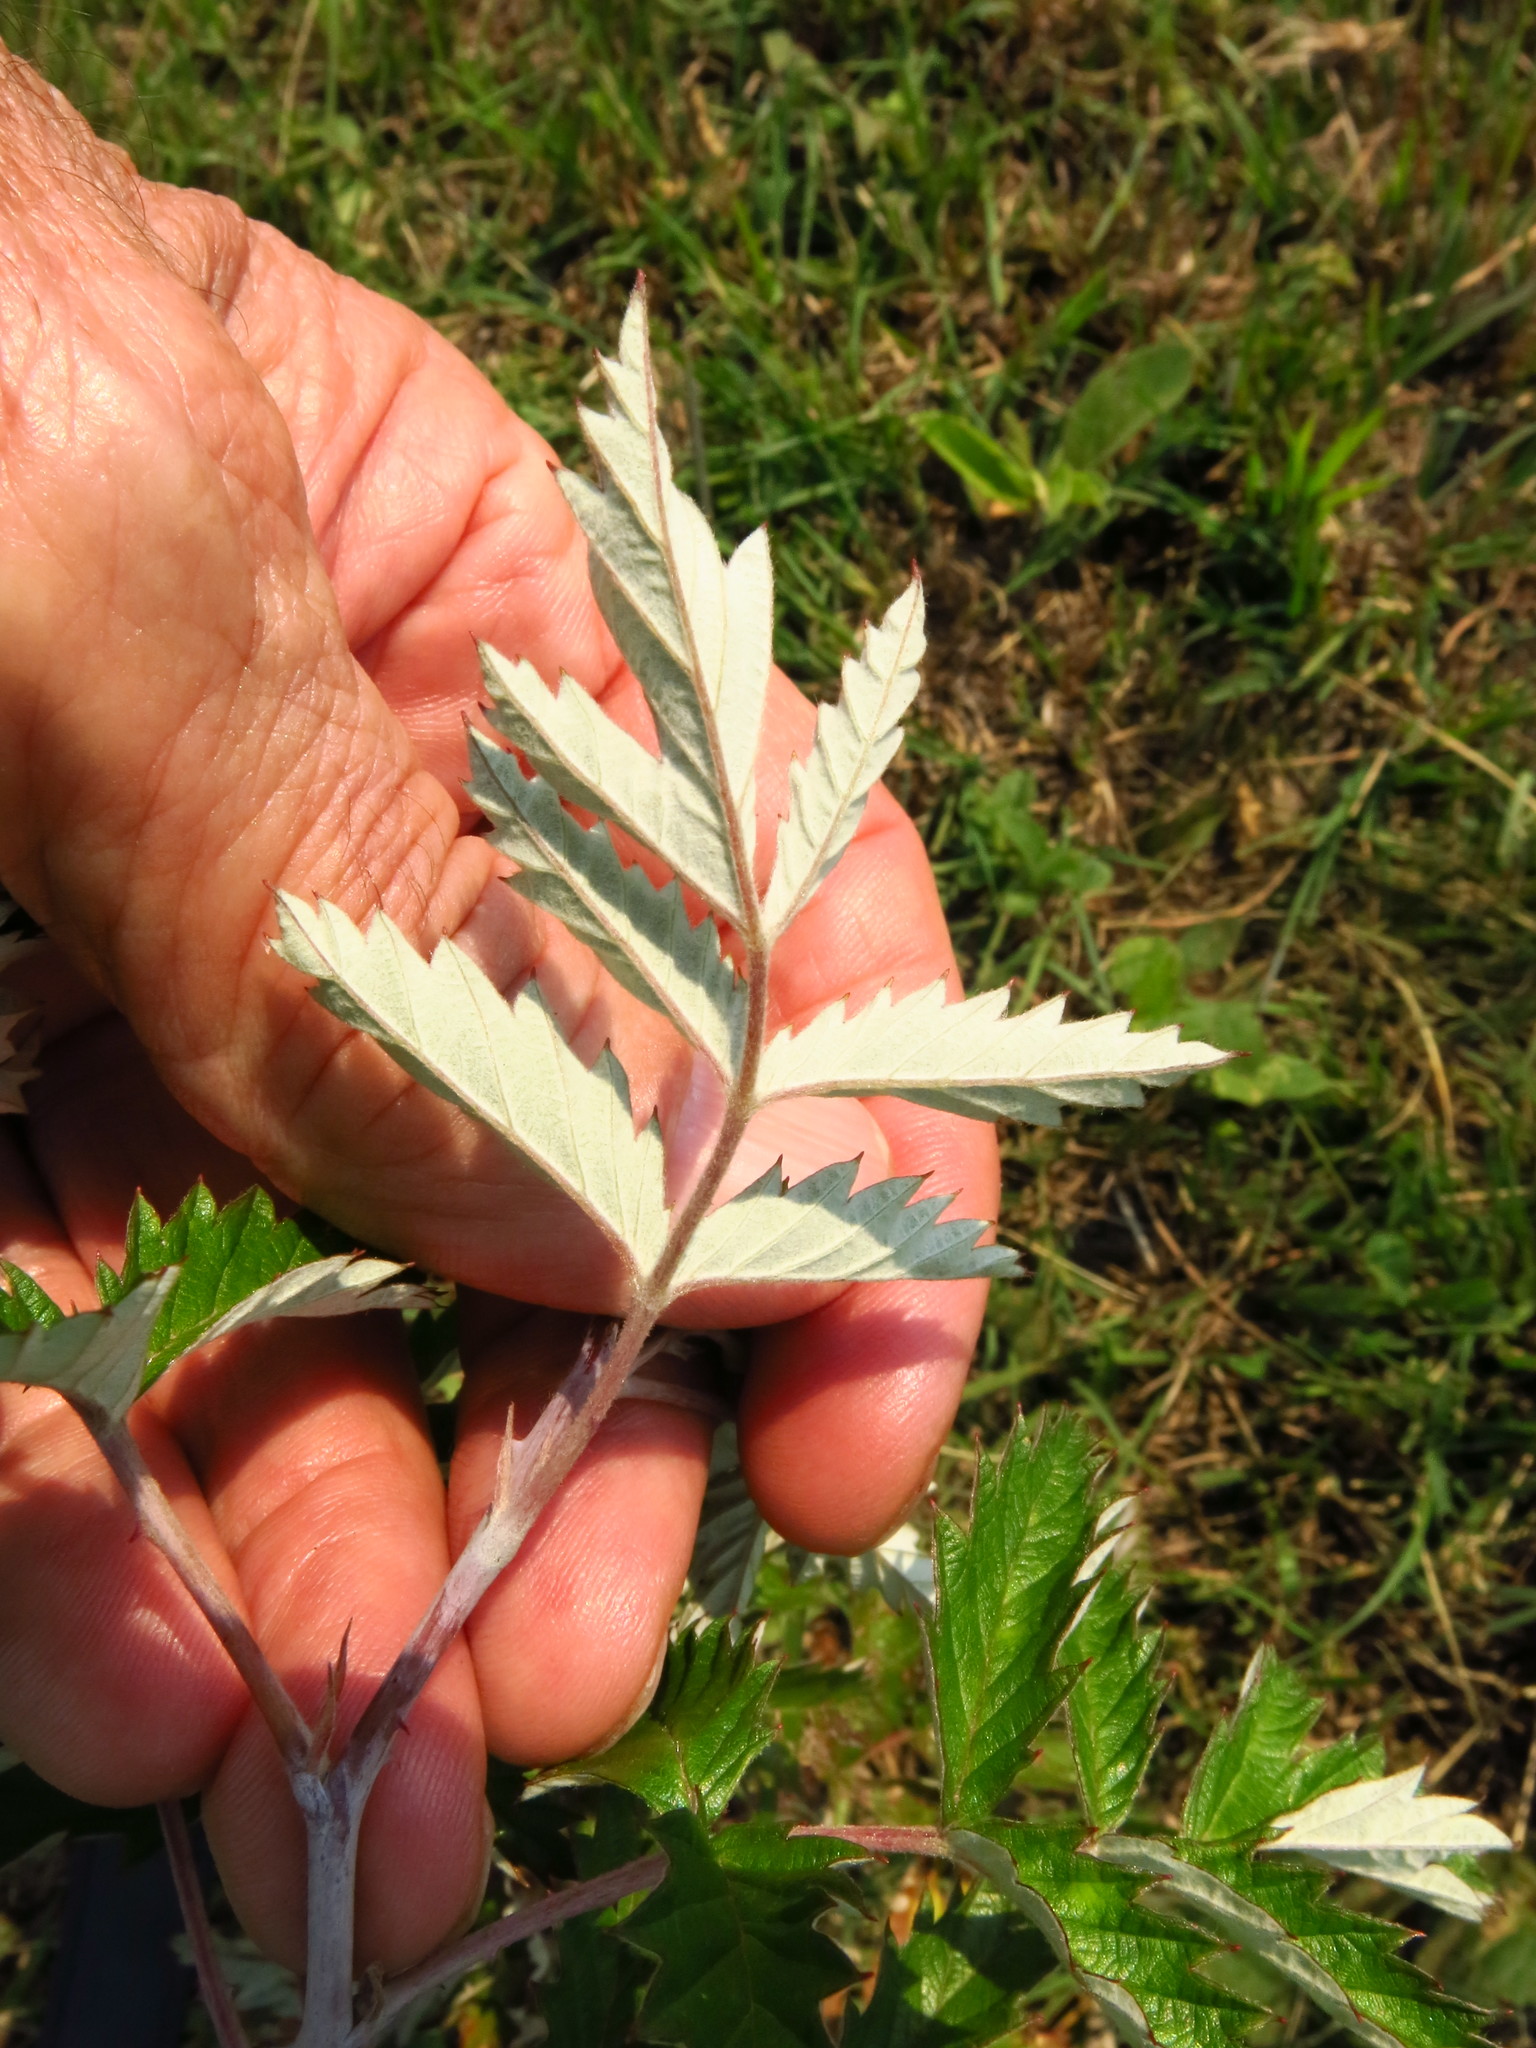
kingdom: Plantae
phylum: Tracheophyta
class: Magnoliopsida
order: Rosales
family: Rosaceae
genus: Rubus
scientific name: Rubus ludwigii
